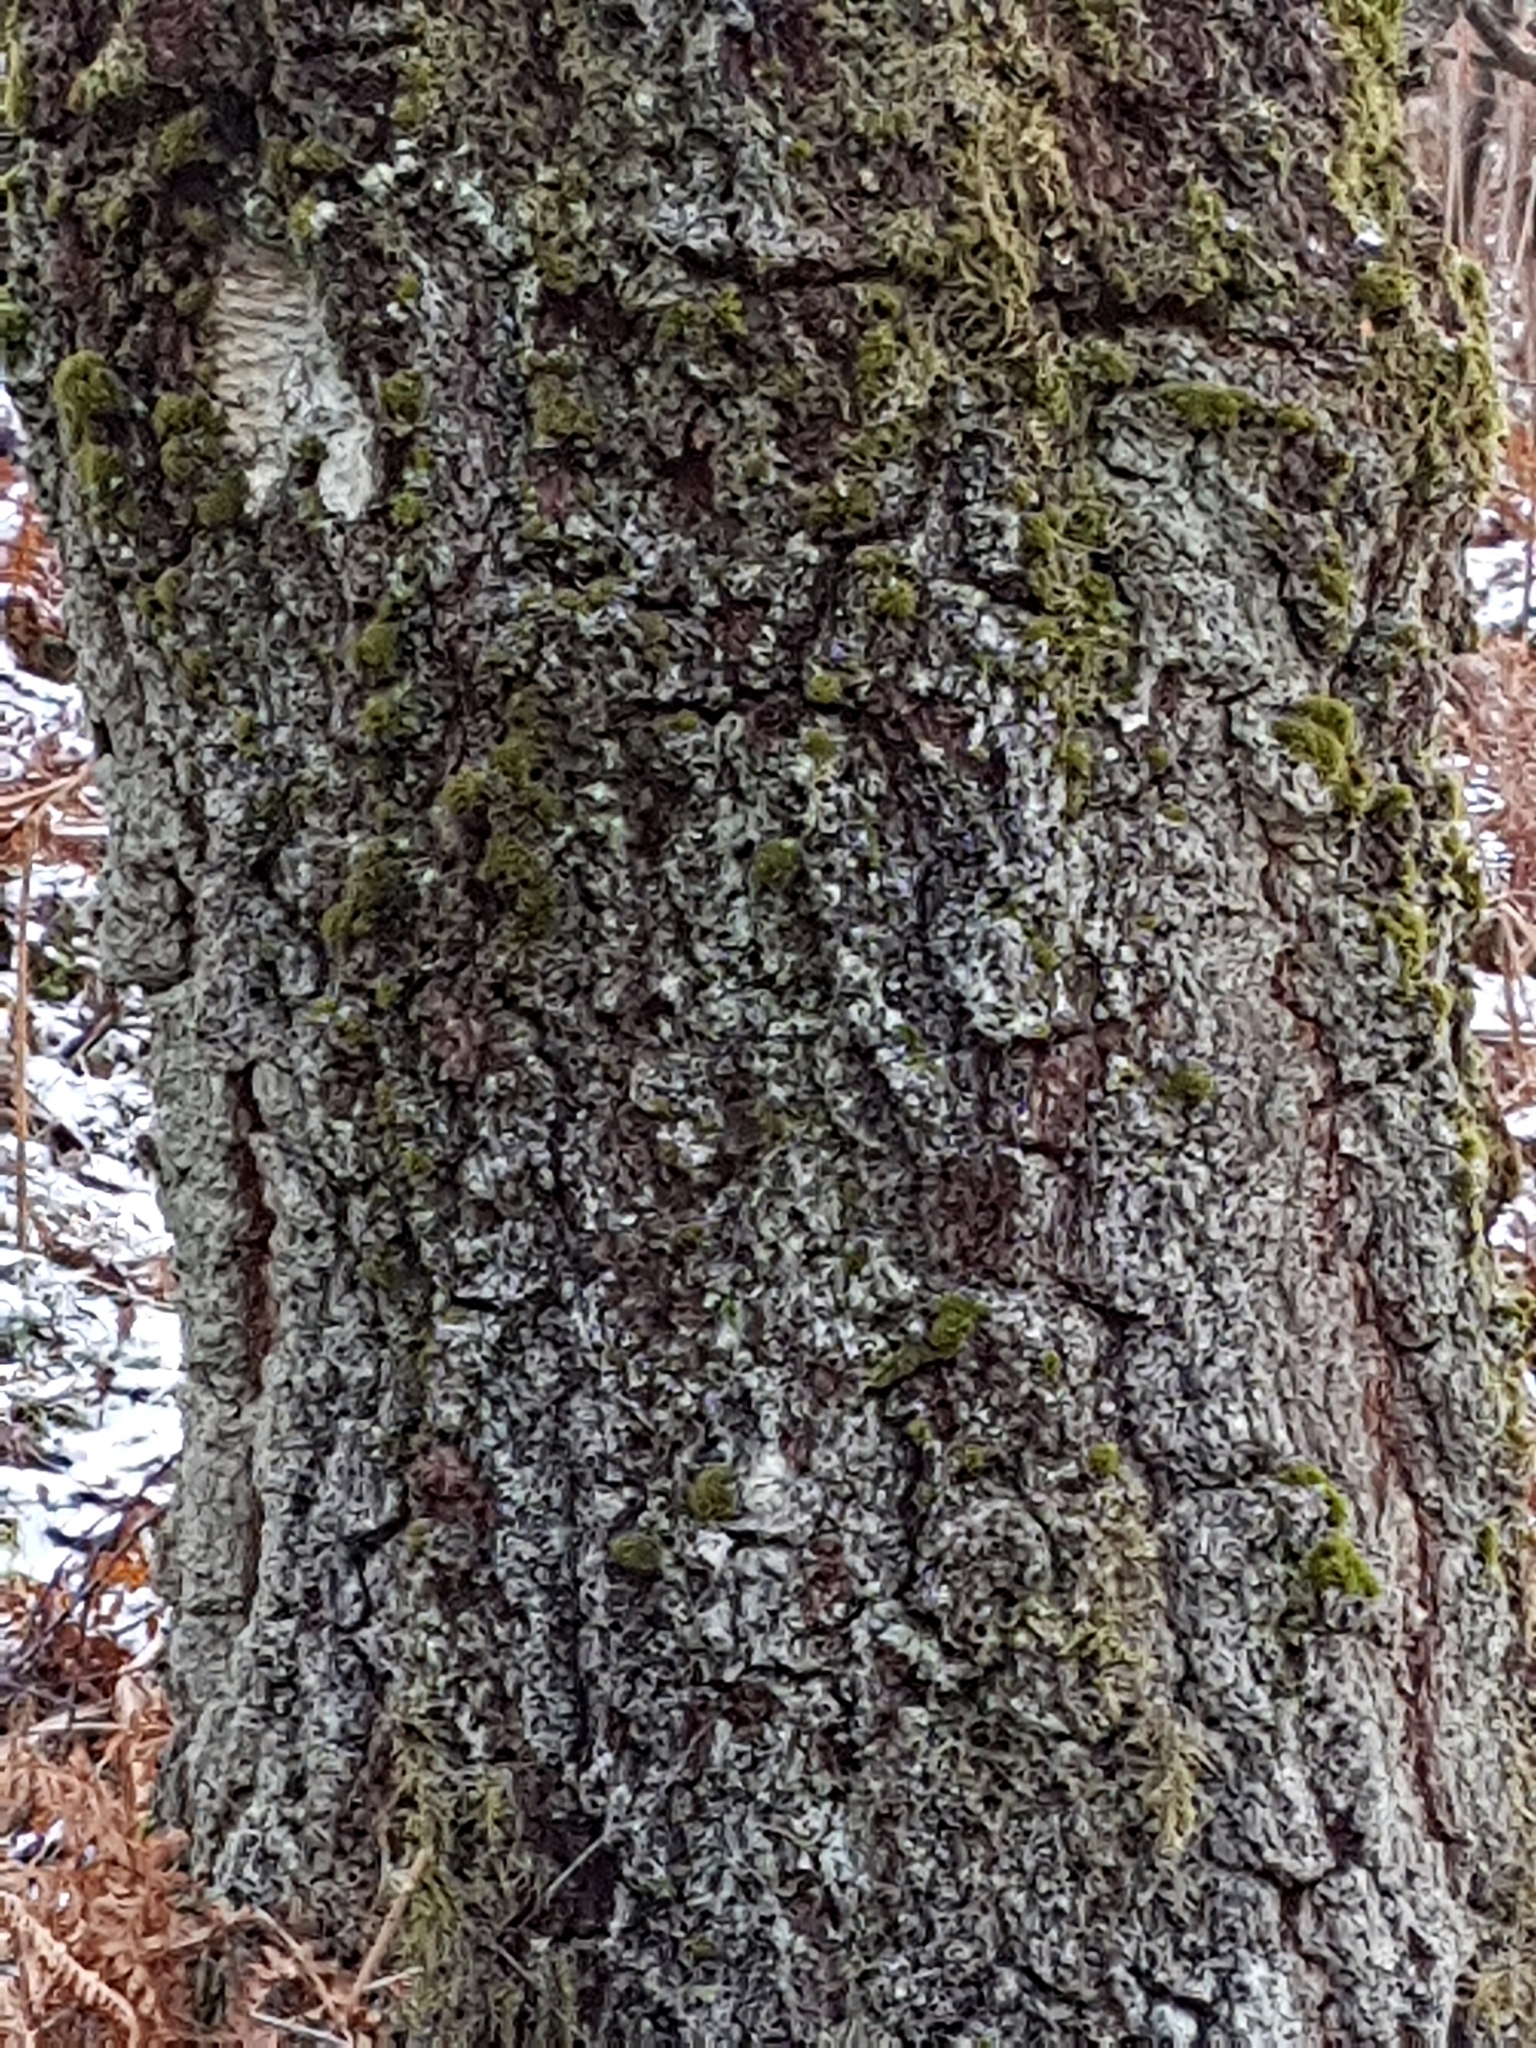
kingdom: Plantae
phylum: Tracheophyta
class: Magnoliopsida
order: Fagales
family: Betulaceae
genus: Betula
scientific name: Betula pendula
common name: Silver birch
